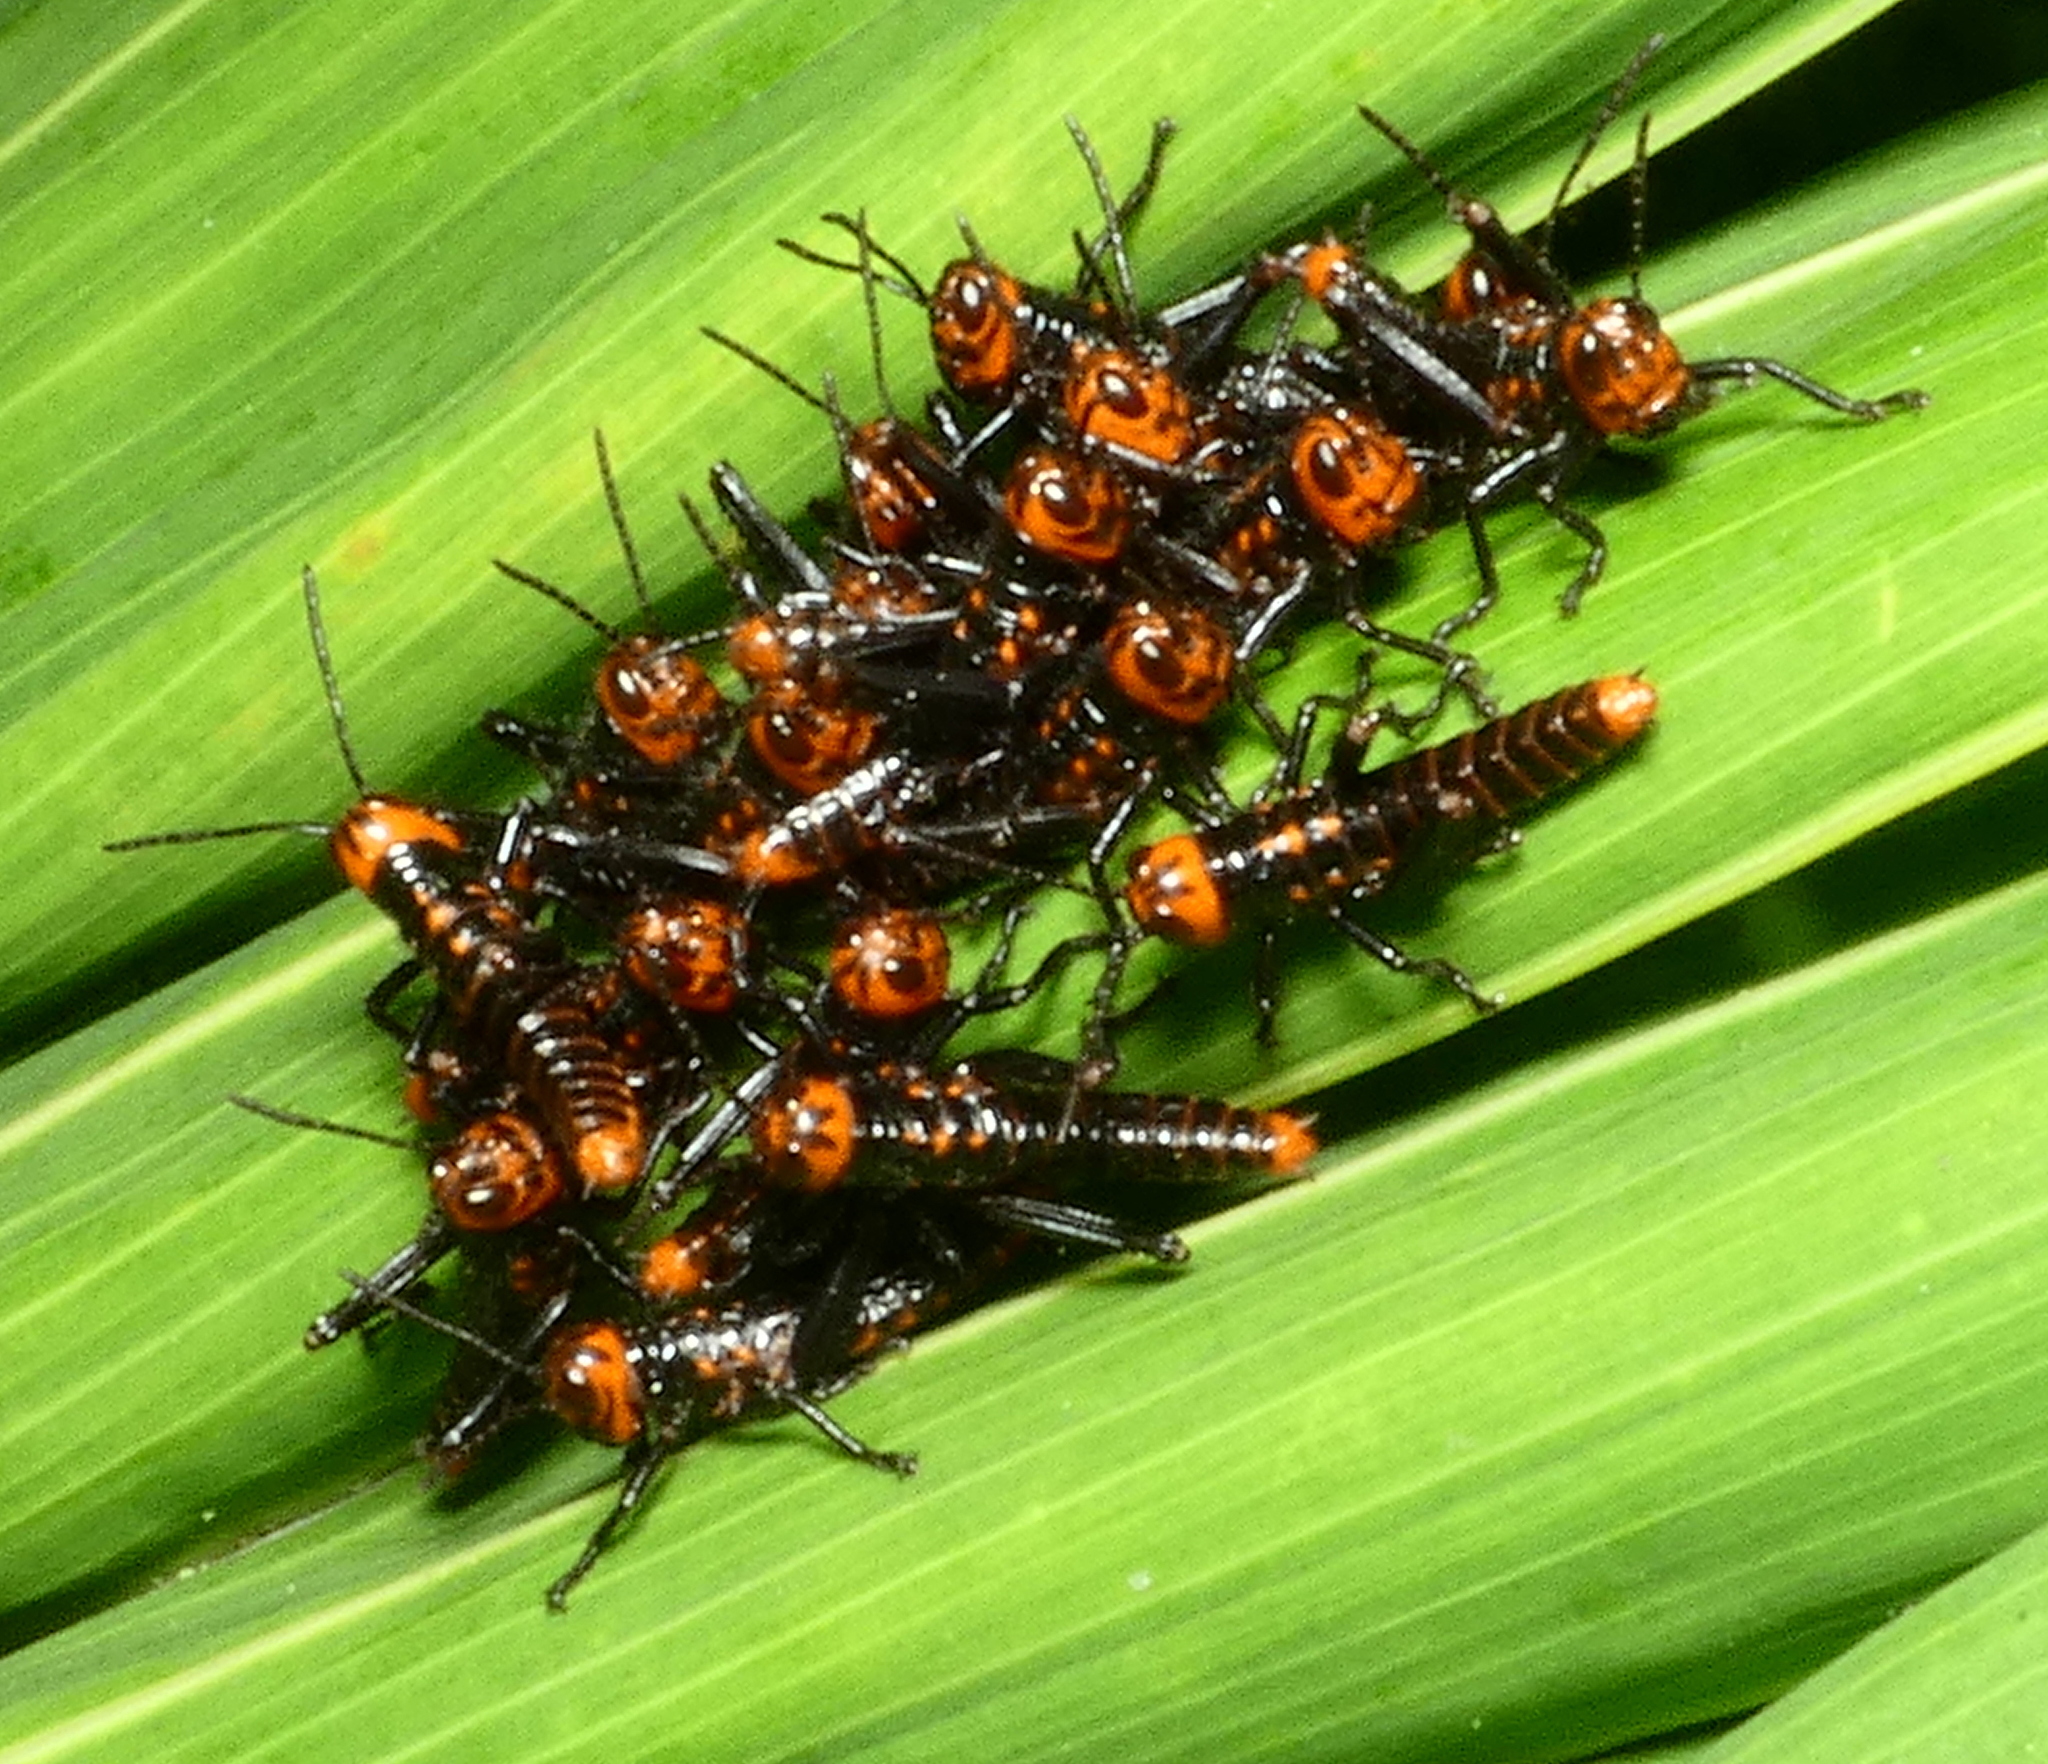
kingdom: Animalia
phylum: Arthropoda
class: Insecta
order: Orthoptera
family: Romaleidae
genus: Tropidacris
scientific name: Tropidacris collaris
